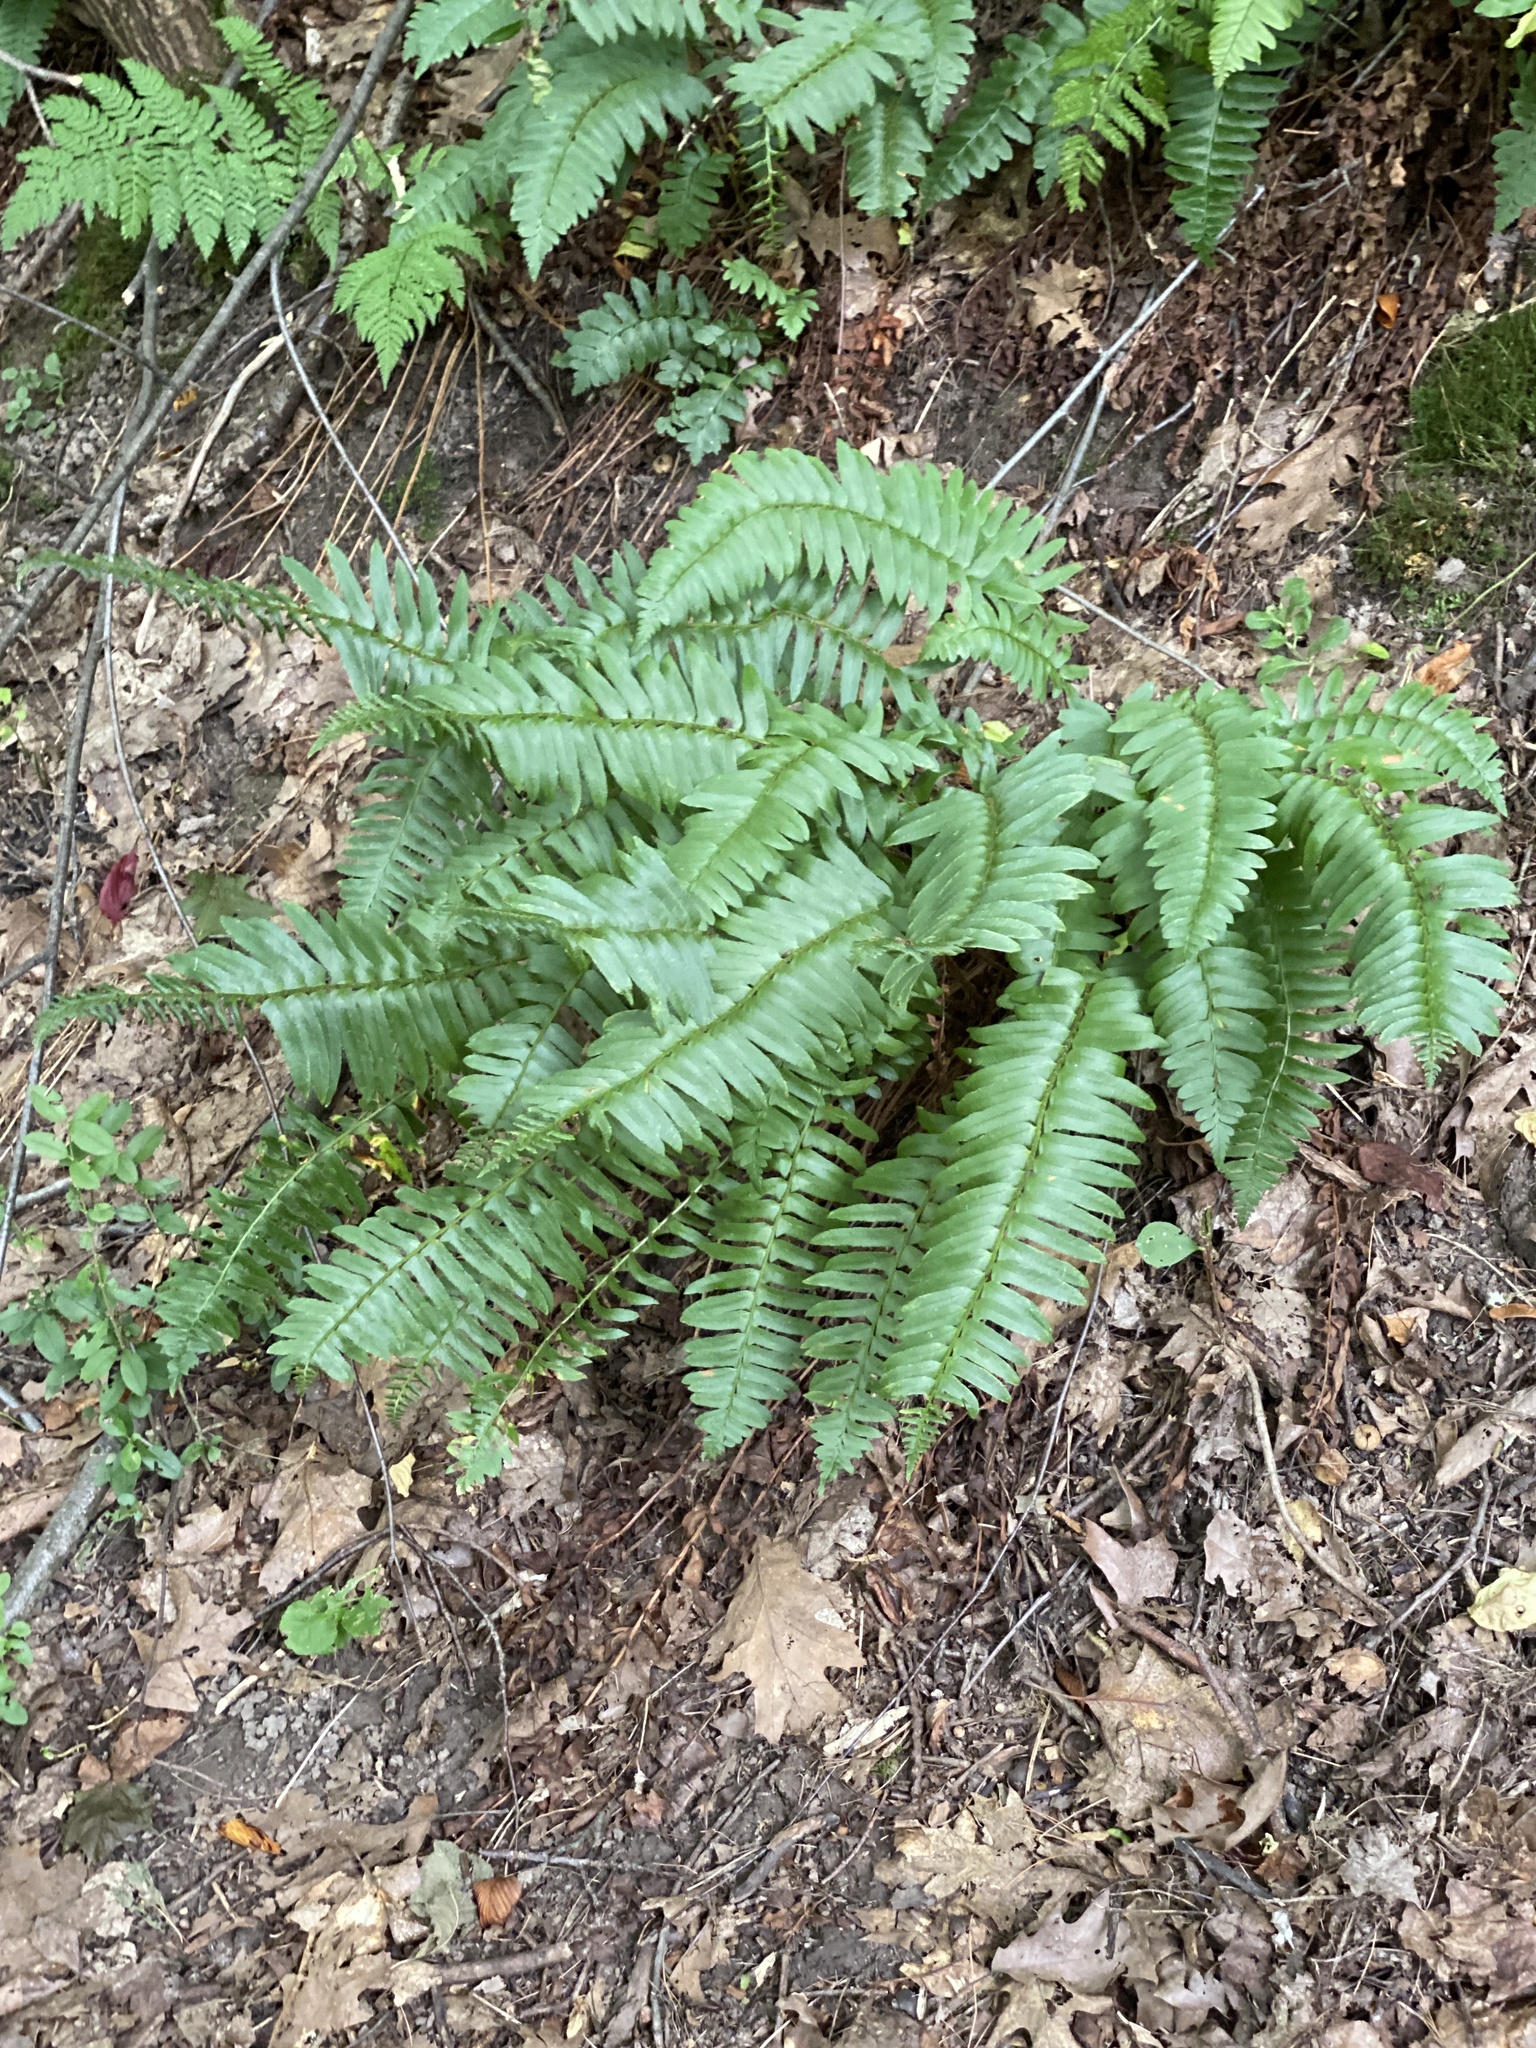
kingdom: Plantae
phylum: Tracheophyta
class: Polypodiopsida
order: Polypodiales
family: Dryopteridaceae
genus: Polystichum
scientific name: Polystichum acrostichoides
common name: Christmas fern
